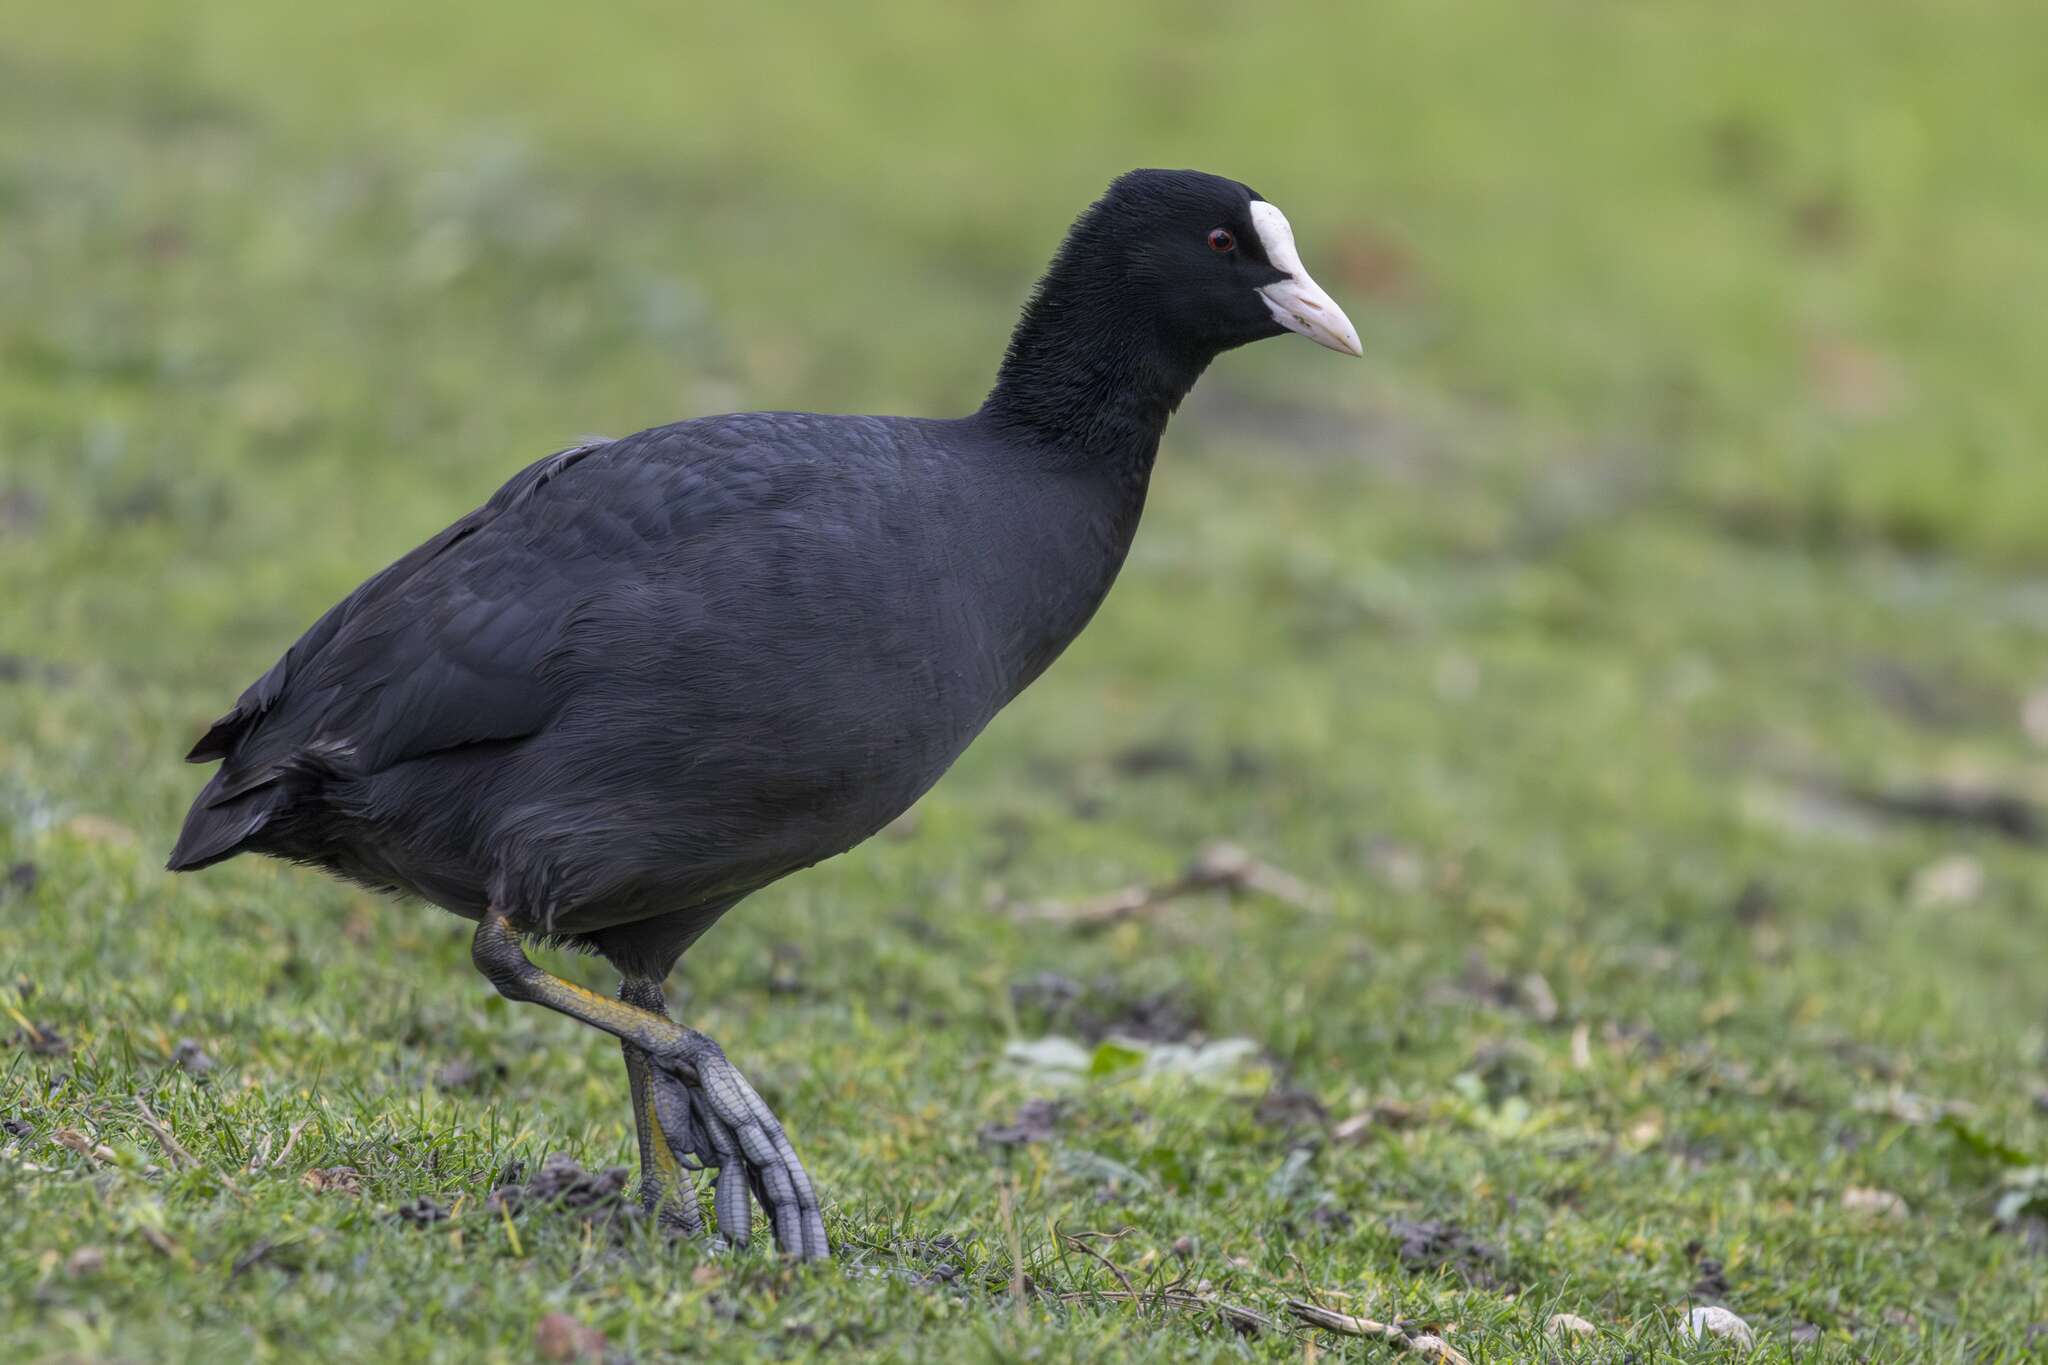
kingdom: Animalia
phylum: Chordata
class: Aves
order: Gruiformes
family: Rallidae
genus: Fulica
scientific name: Fulica atra
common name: Eurasian coot
